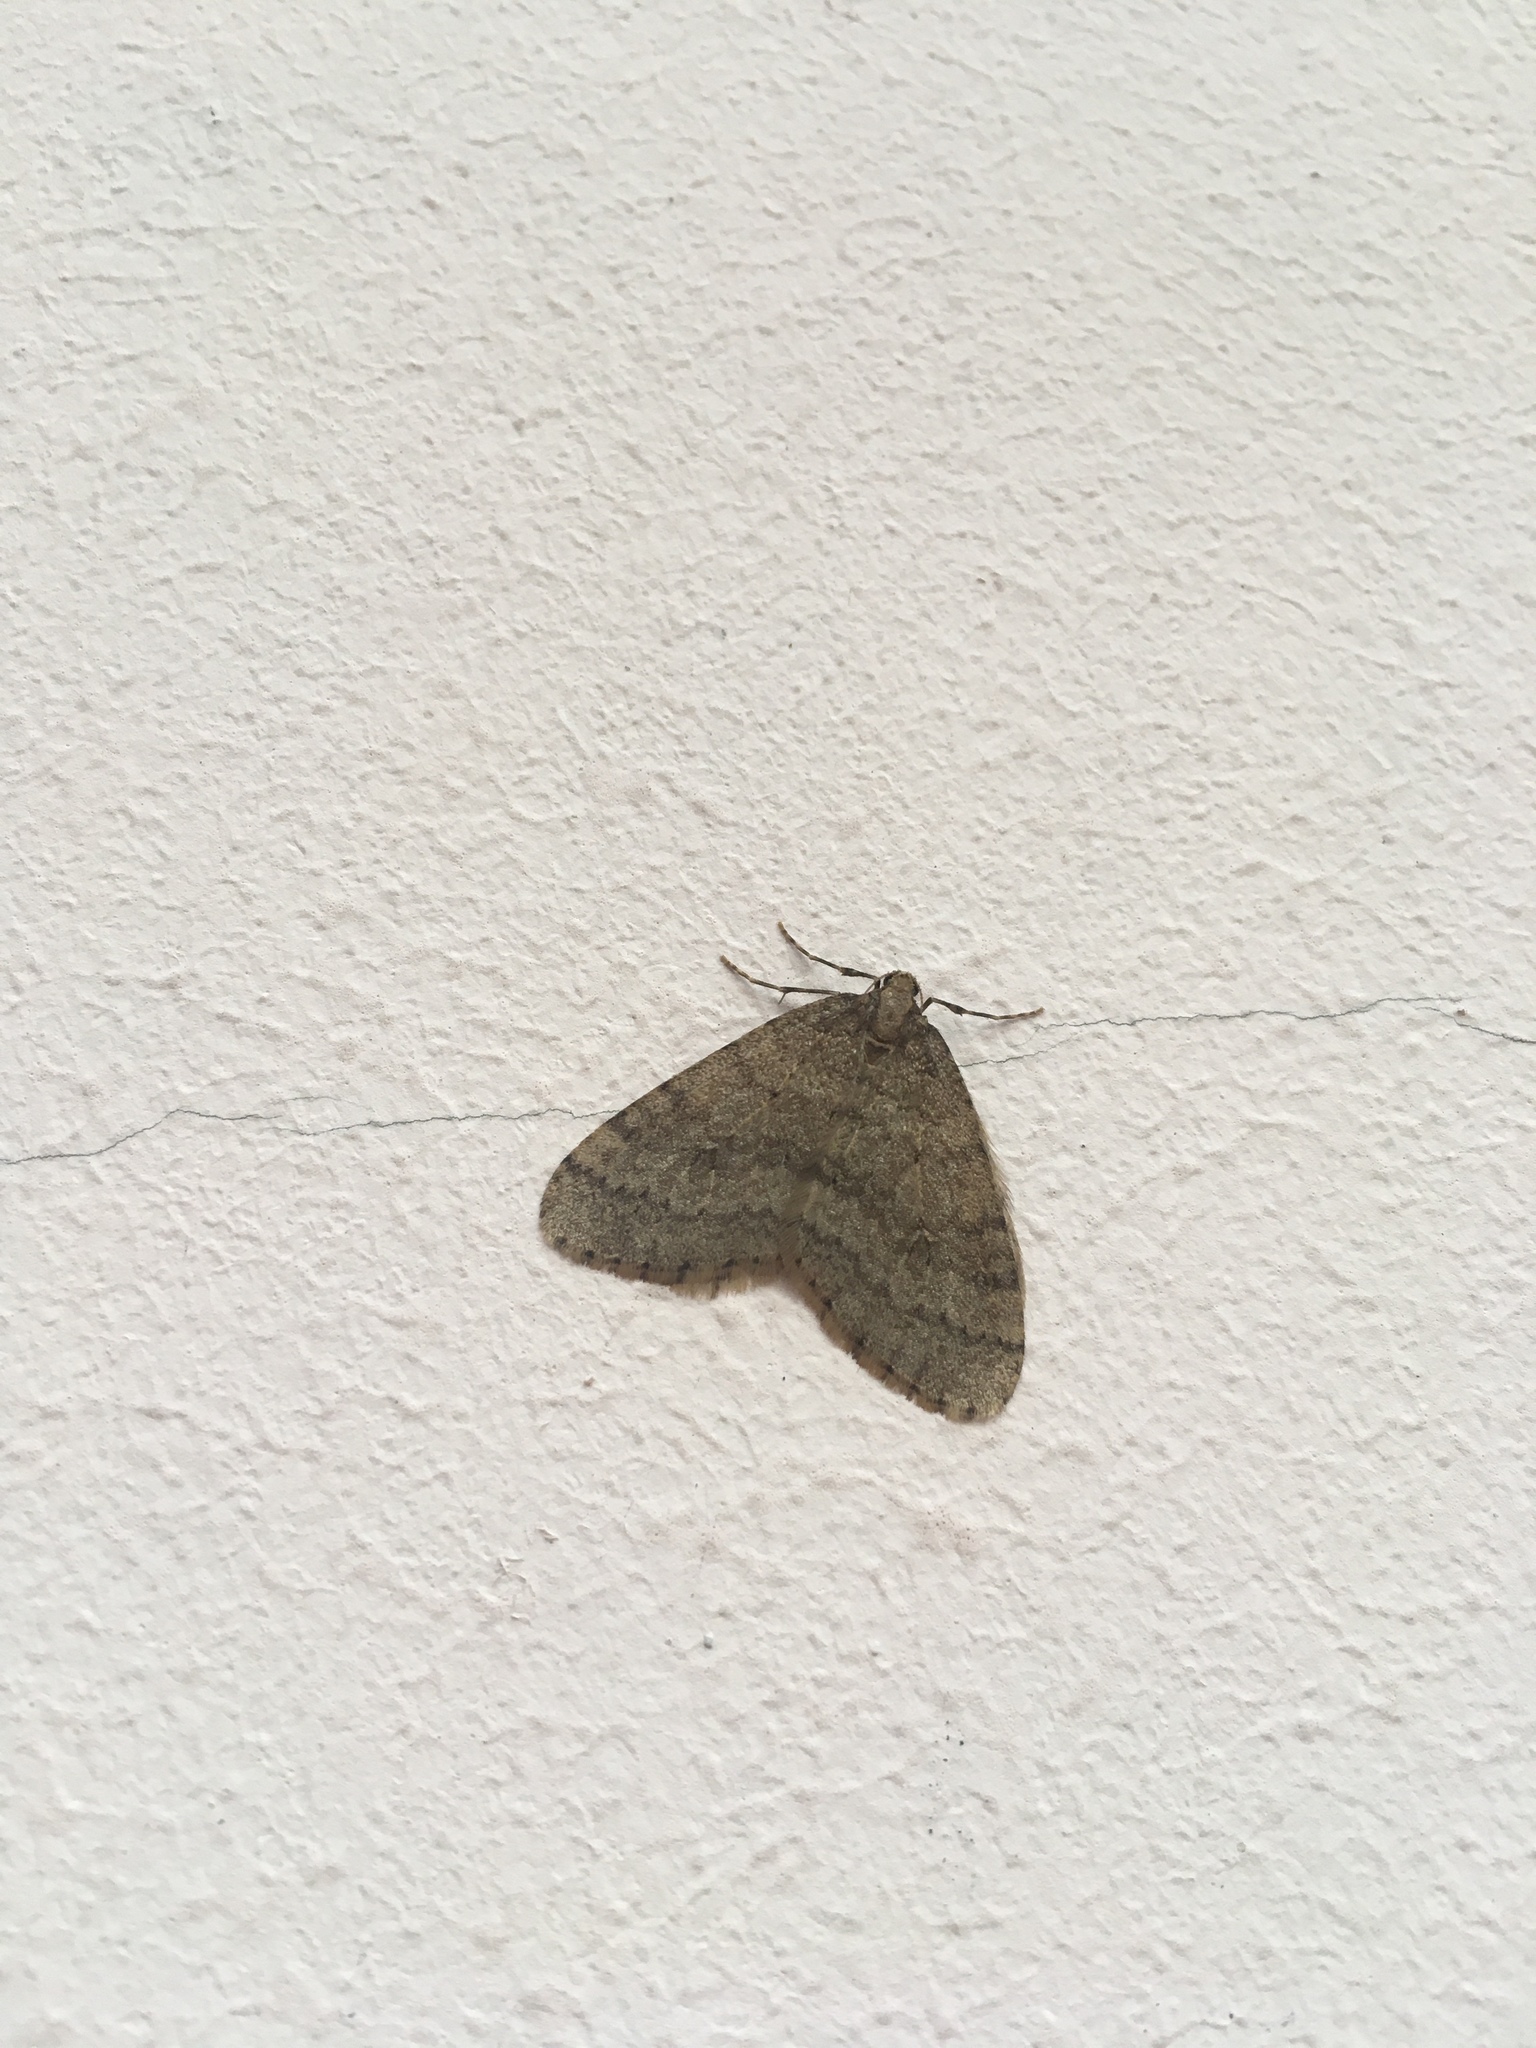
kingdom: Animalia
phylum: Arthropoda
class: Insecta
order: Lepidoptera
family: Geometridae
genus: Operophtera
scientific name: Operophtera brumata
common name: Winter moth
